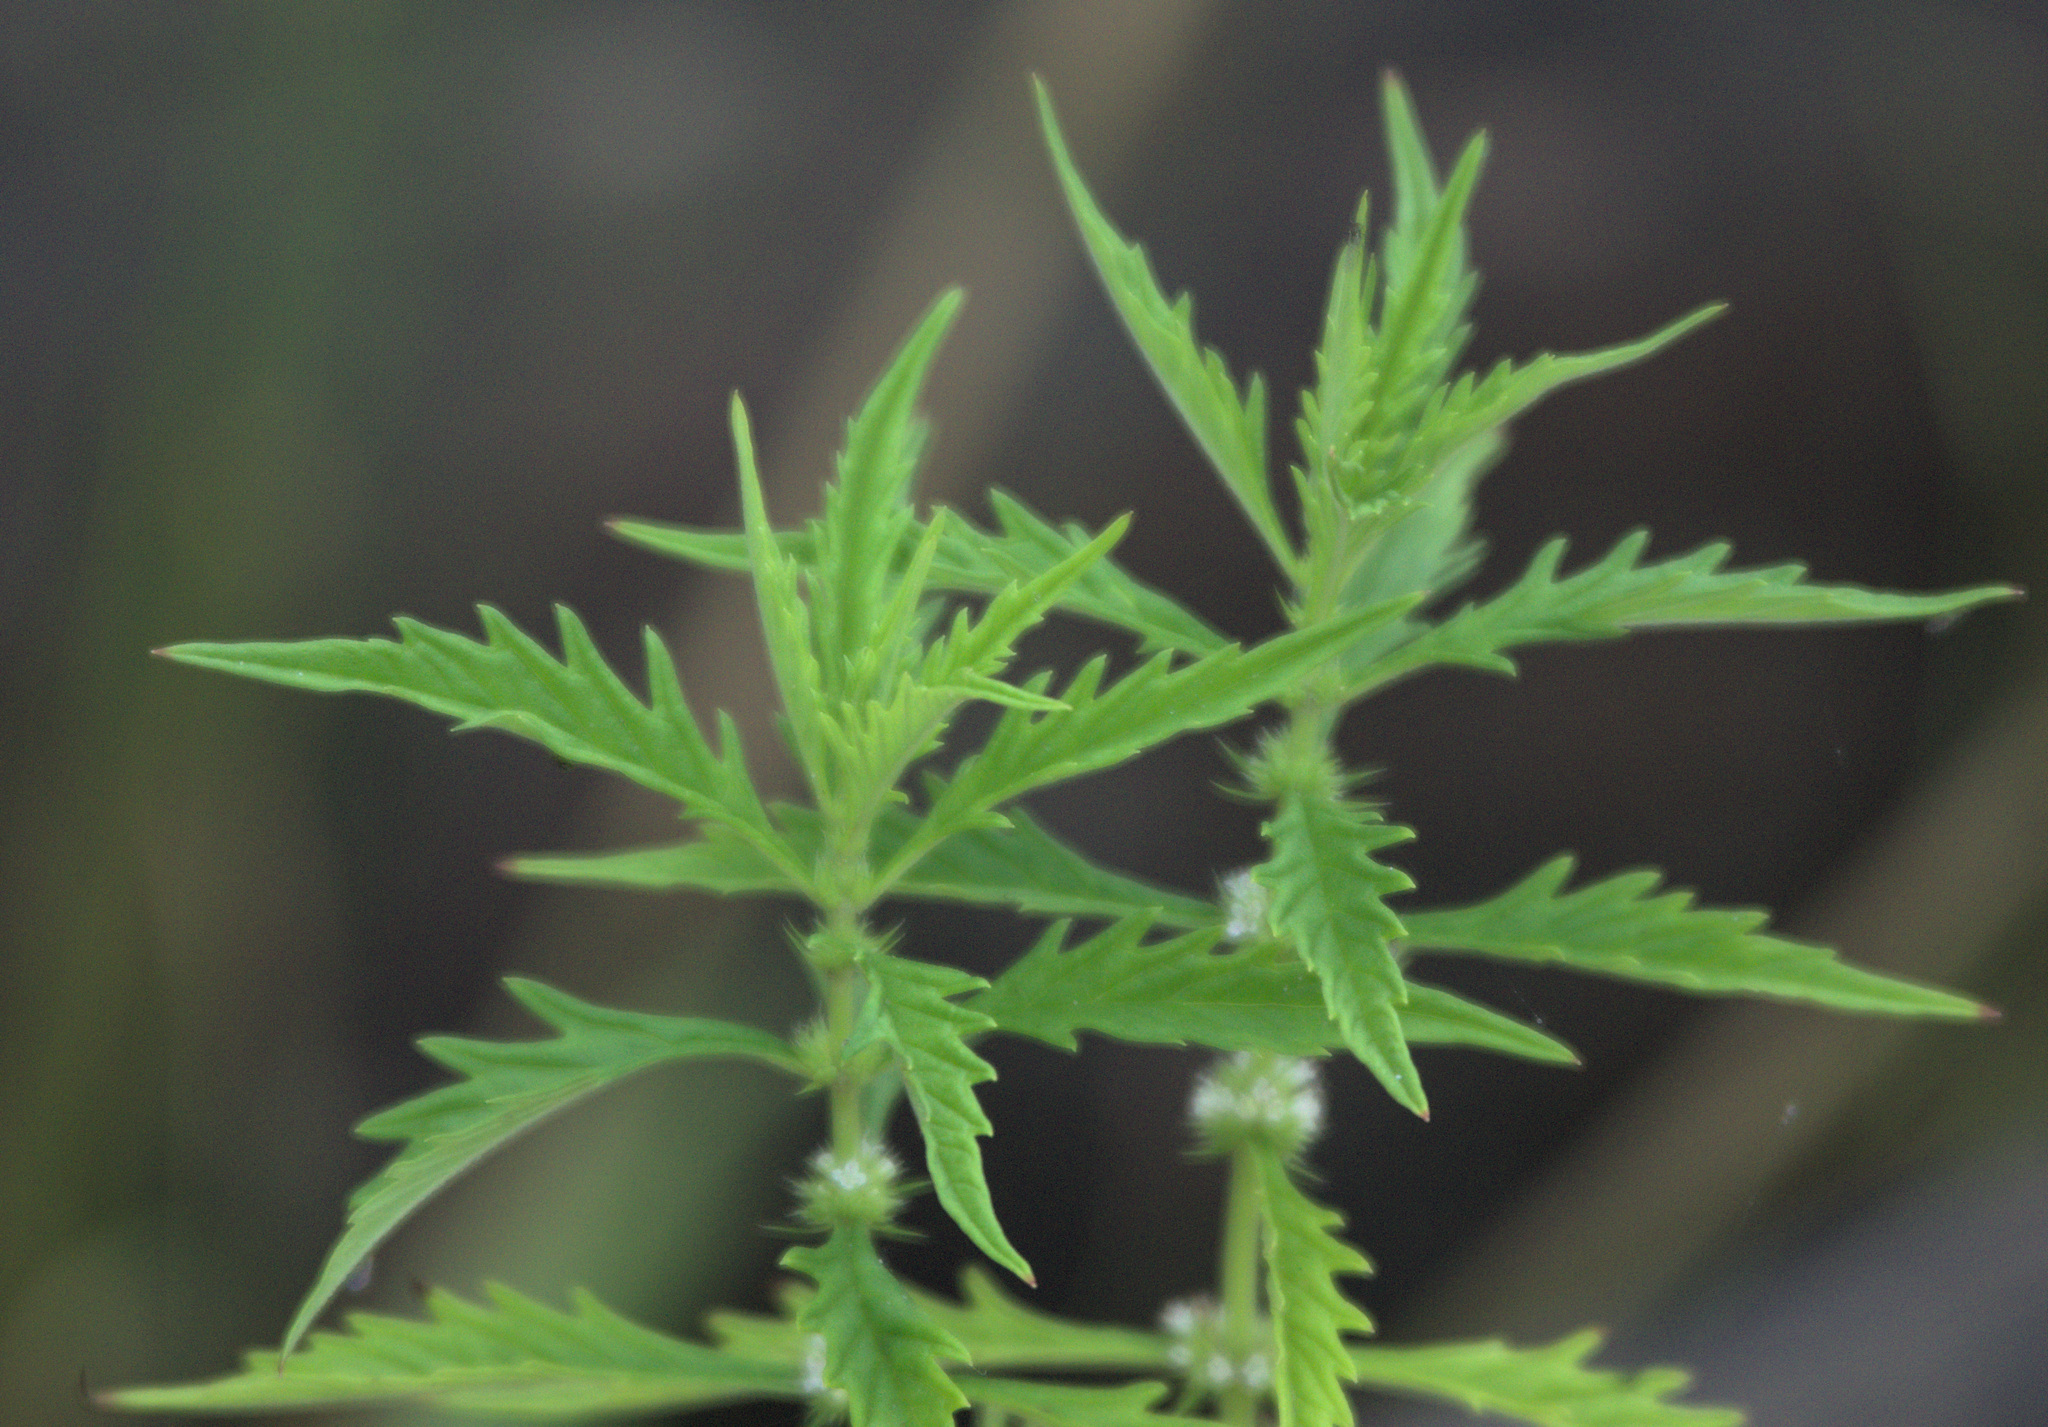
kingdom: Plantae
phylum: Tracheophyta
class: Magnoliopsida
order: Lamiales
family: Lamiaceae
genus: Lycopus
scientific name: Lycopus europaeus
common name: European bugleweed
